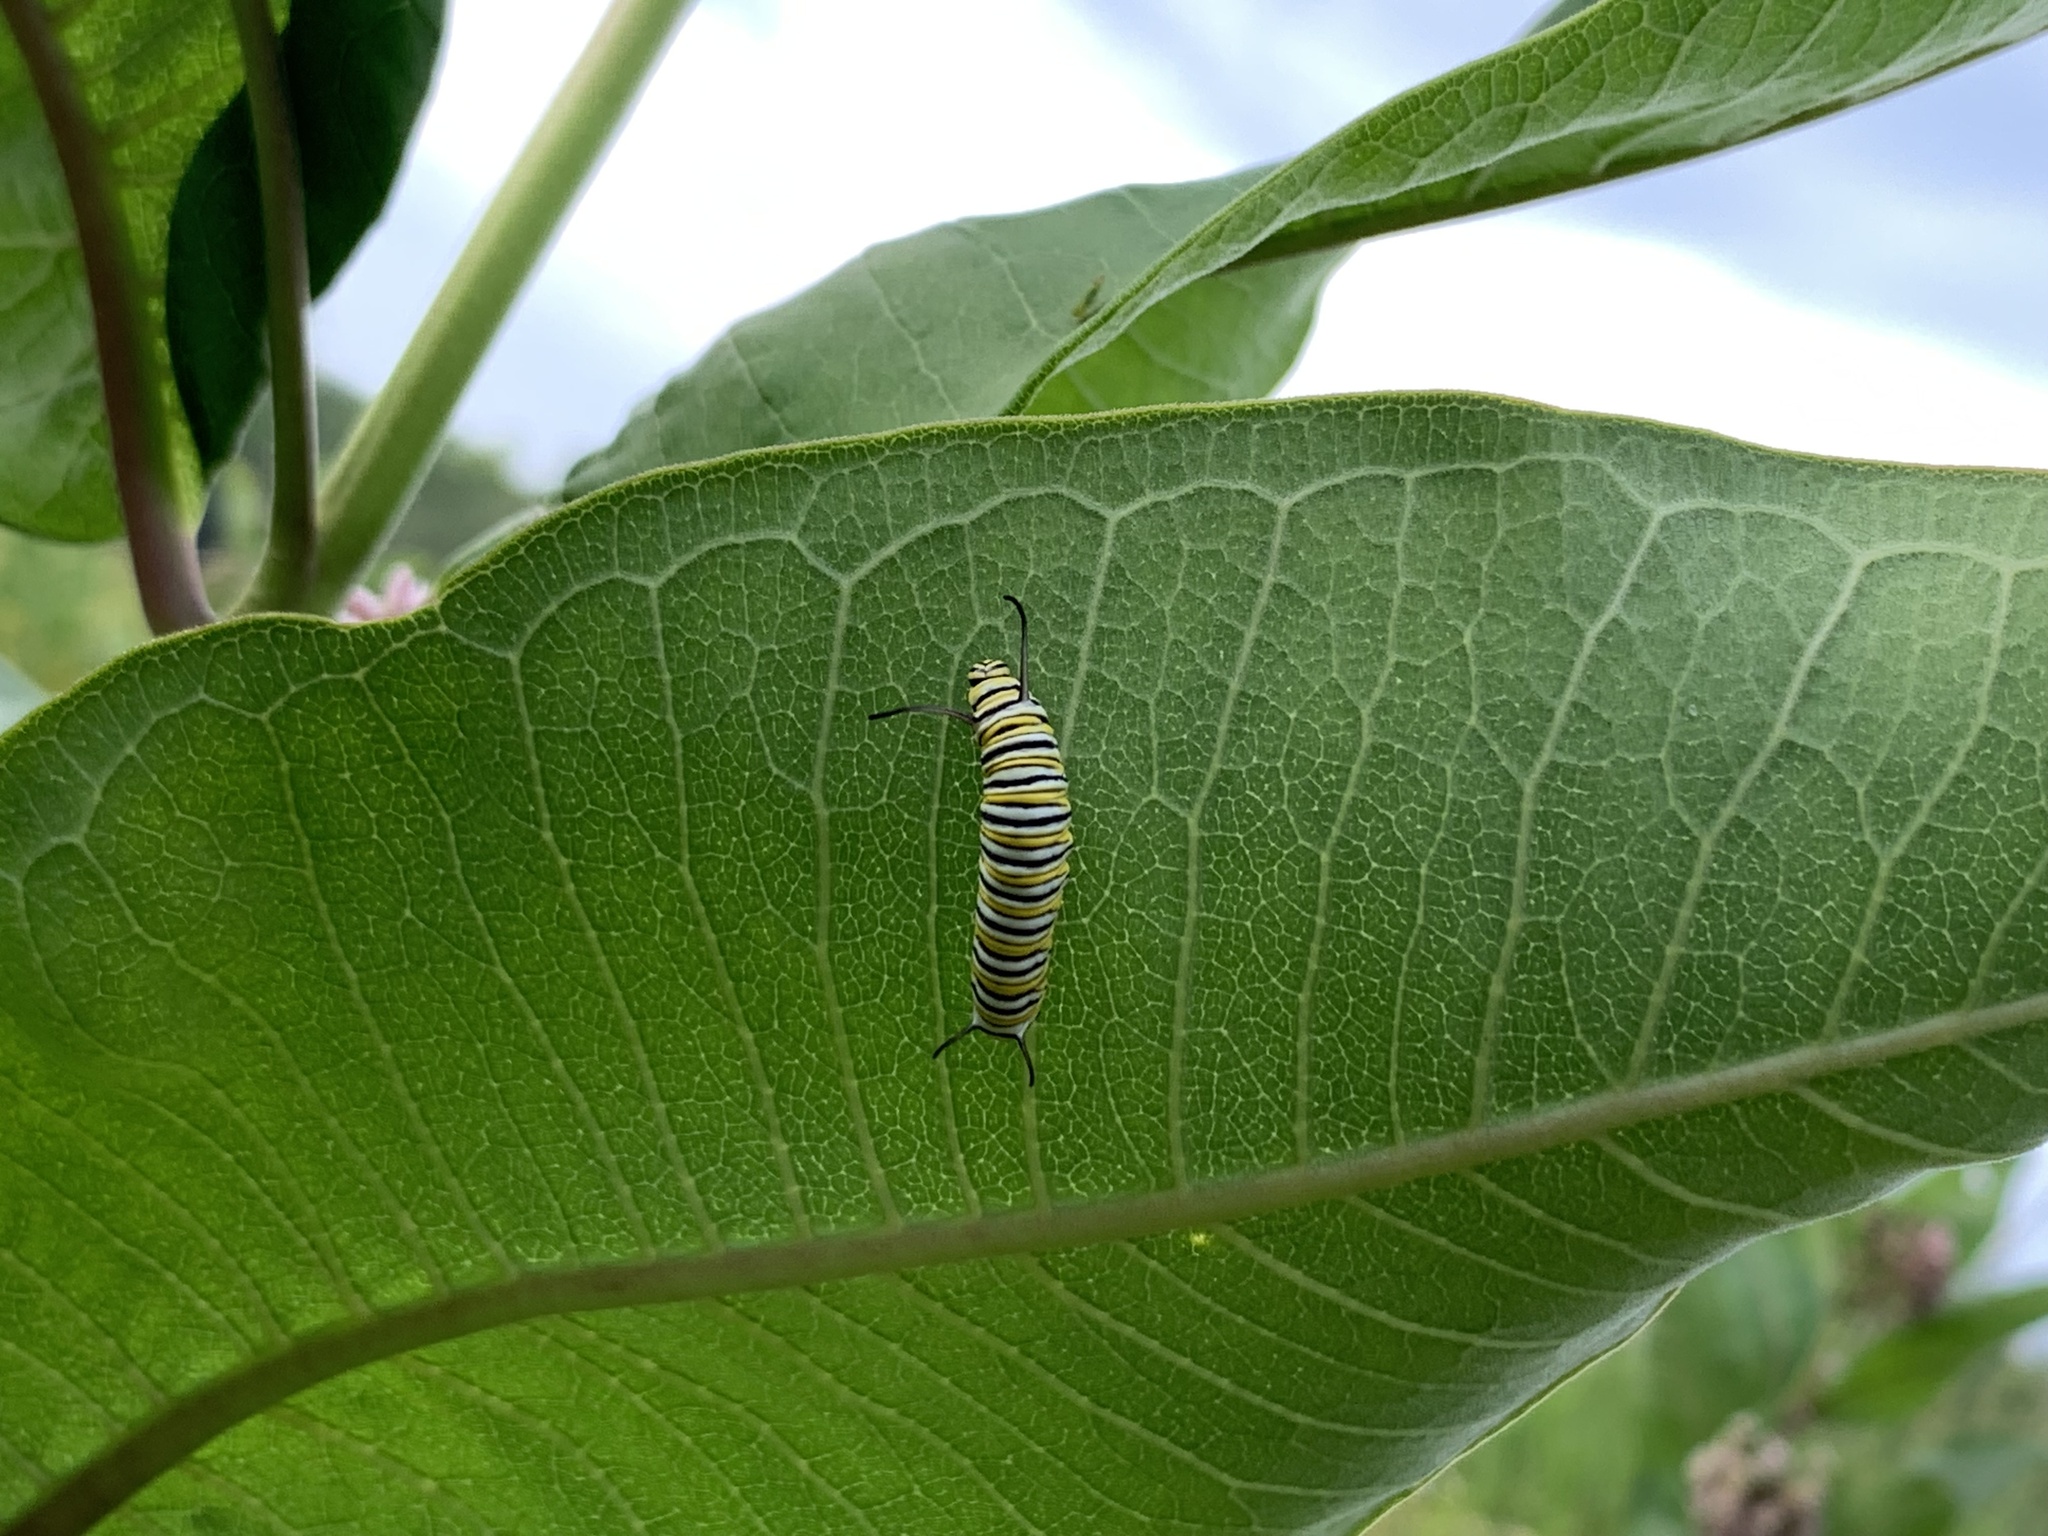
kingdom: Animalia
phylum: Arthropoda
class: Insecta
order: Lepidoptera
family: Nymphalidae
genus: Danaus
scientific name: Danaus plexippus
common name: Monarch
